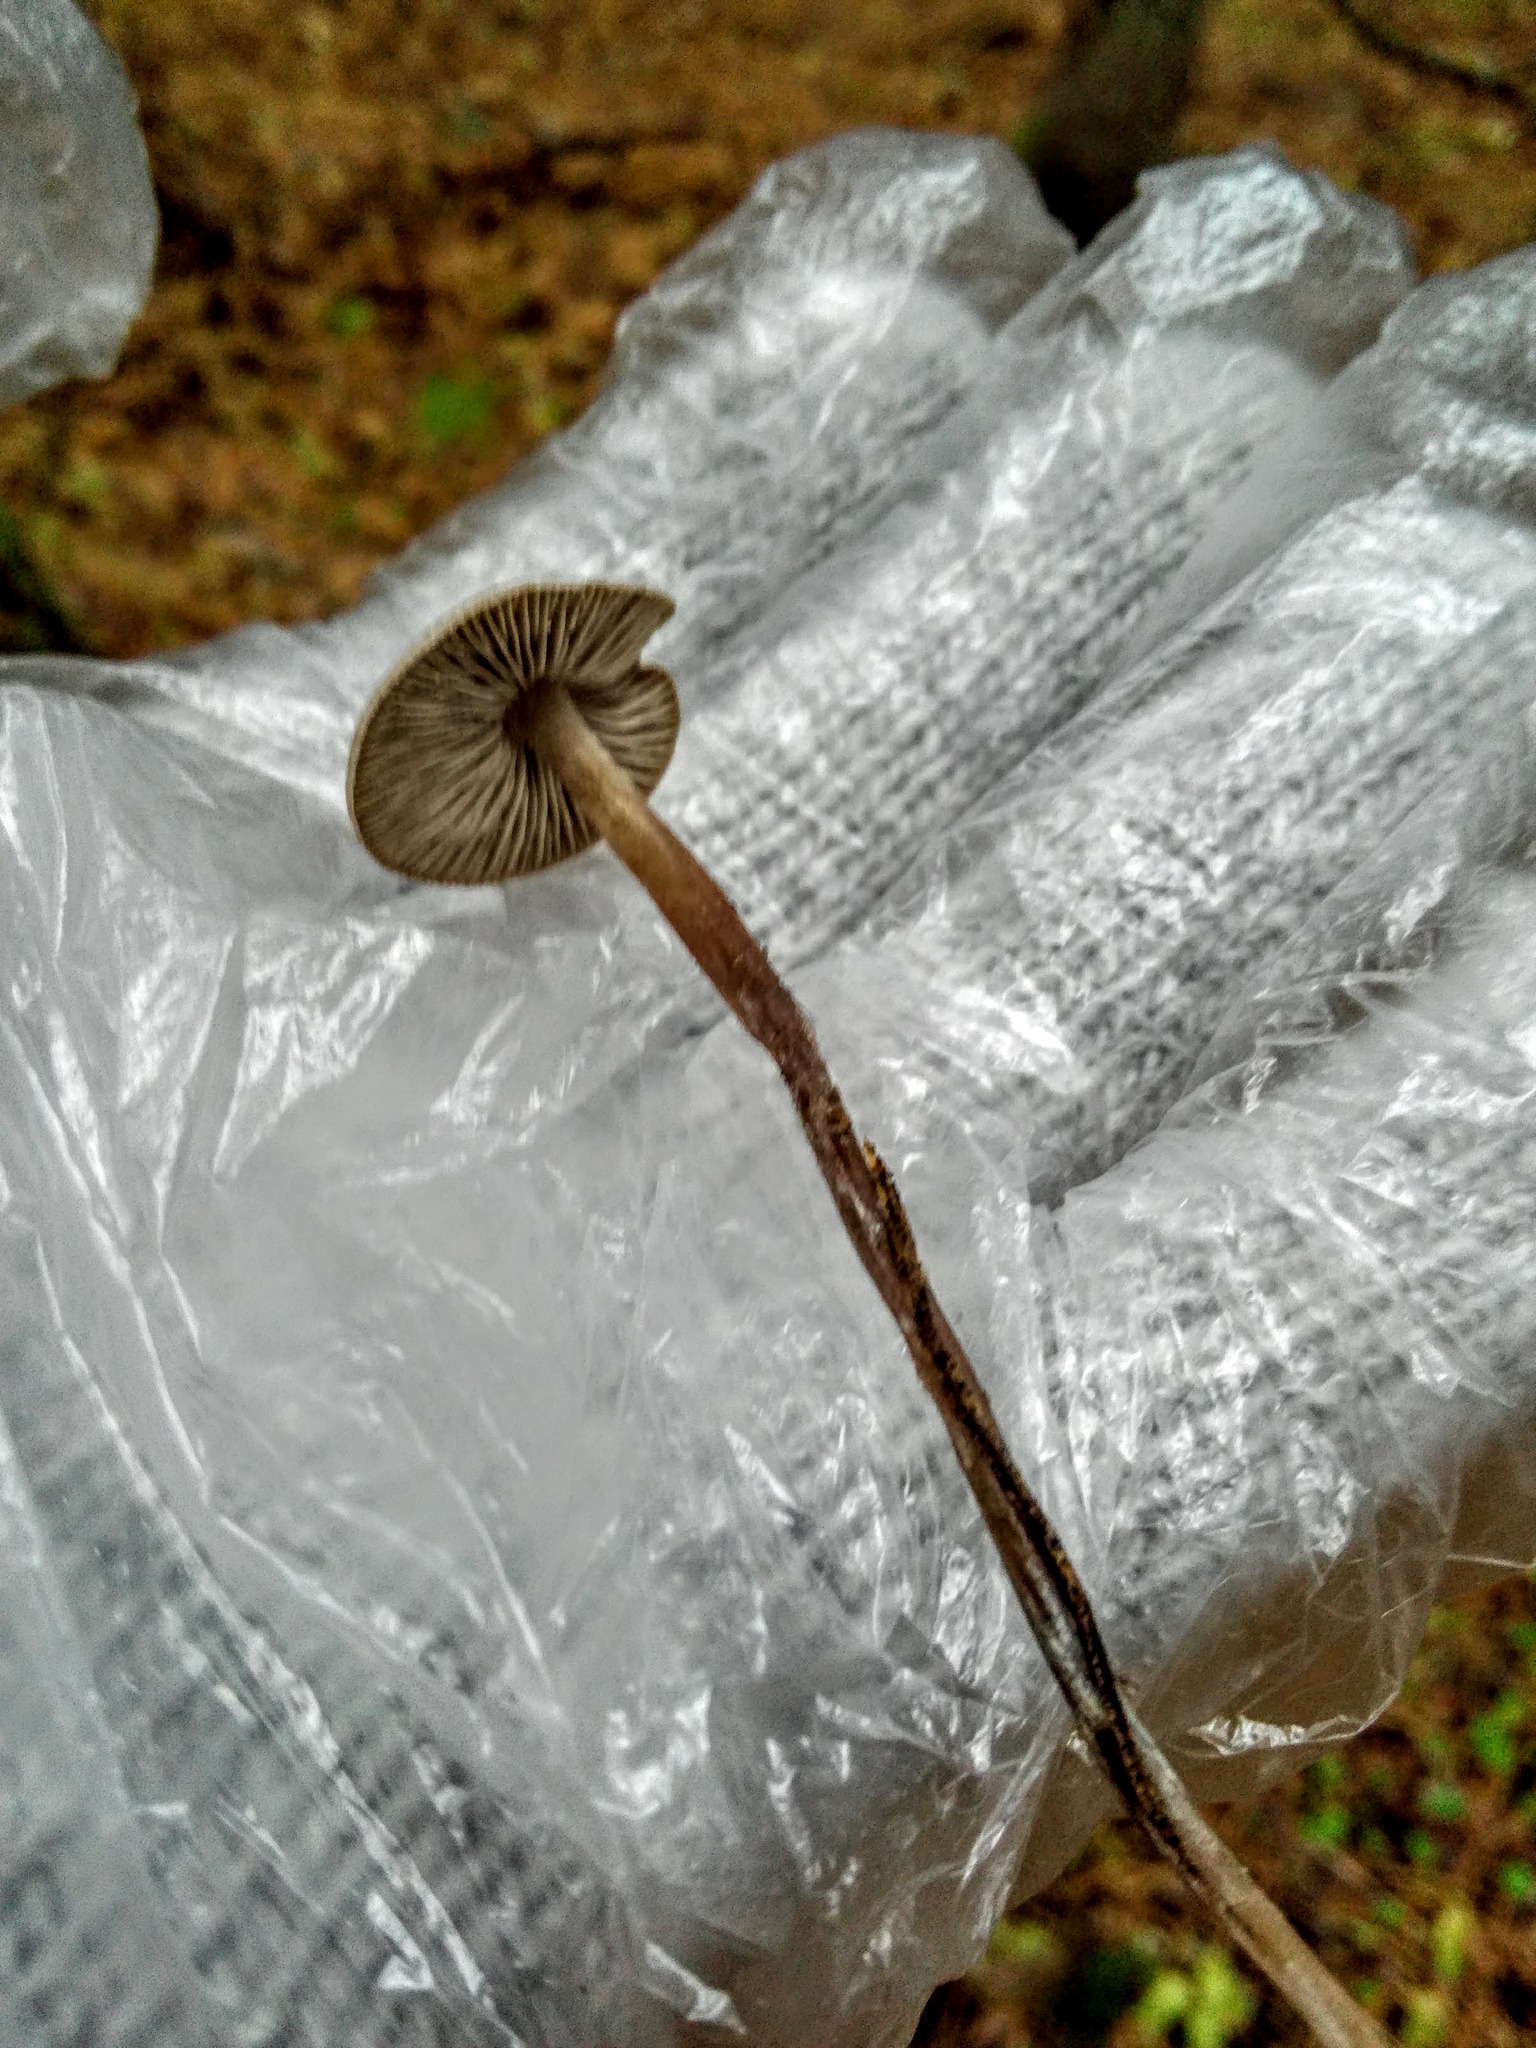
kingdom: Fungi
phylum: Basidiomycota
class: Agaricomycetes
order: Agaricales
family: Lyophyllaceae
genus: Tephrocybe
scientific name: Tephrocybe rancida
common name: Rancid greyling
